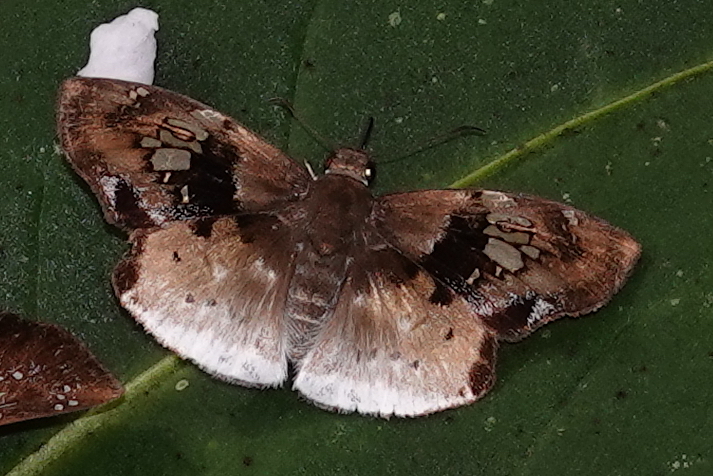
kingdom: Animalia
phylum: Arthropoda
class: Insecta
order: Lepidoptera
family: Hesperiidae
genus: Gindanes
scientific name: Gindanes brebisson
